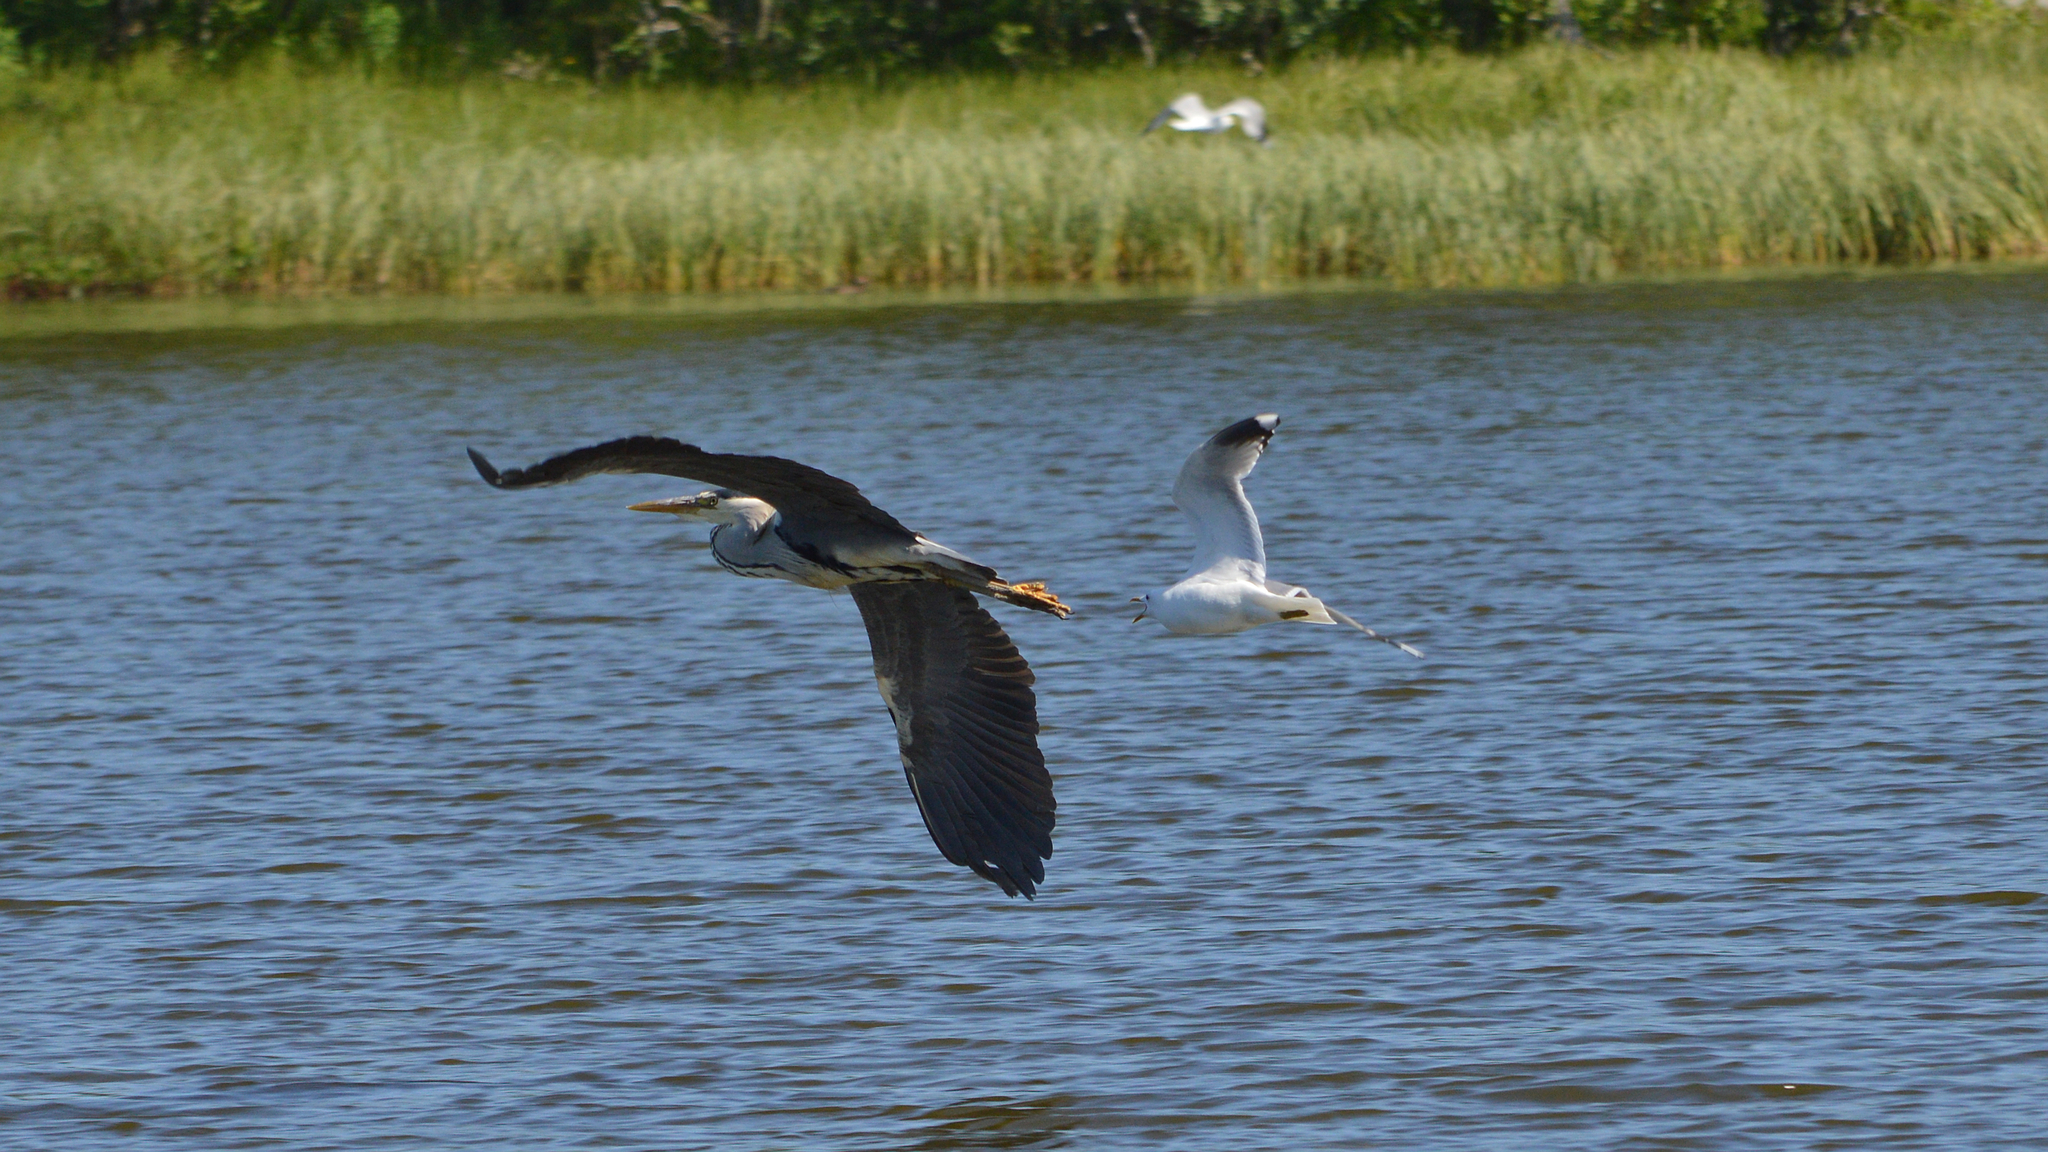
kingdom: Animalia
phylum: Chordata
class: Aves
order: Pelecaniformes
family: Ardeidae
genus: Ardea
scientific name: Ardea cinerea
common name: Grey heron
